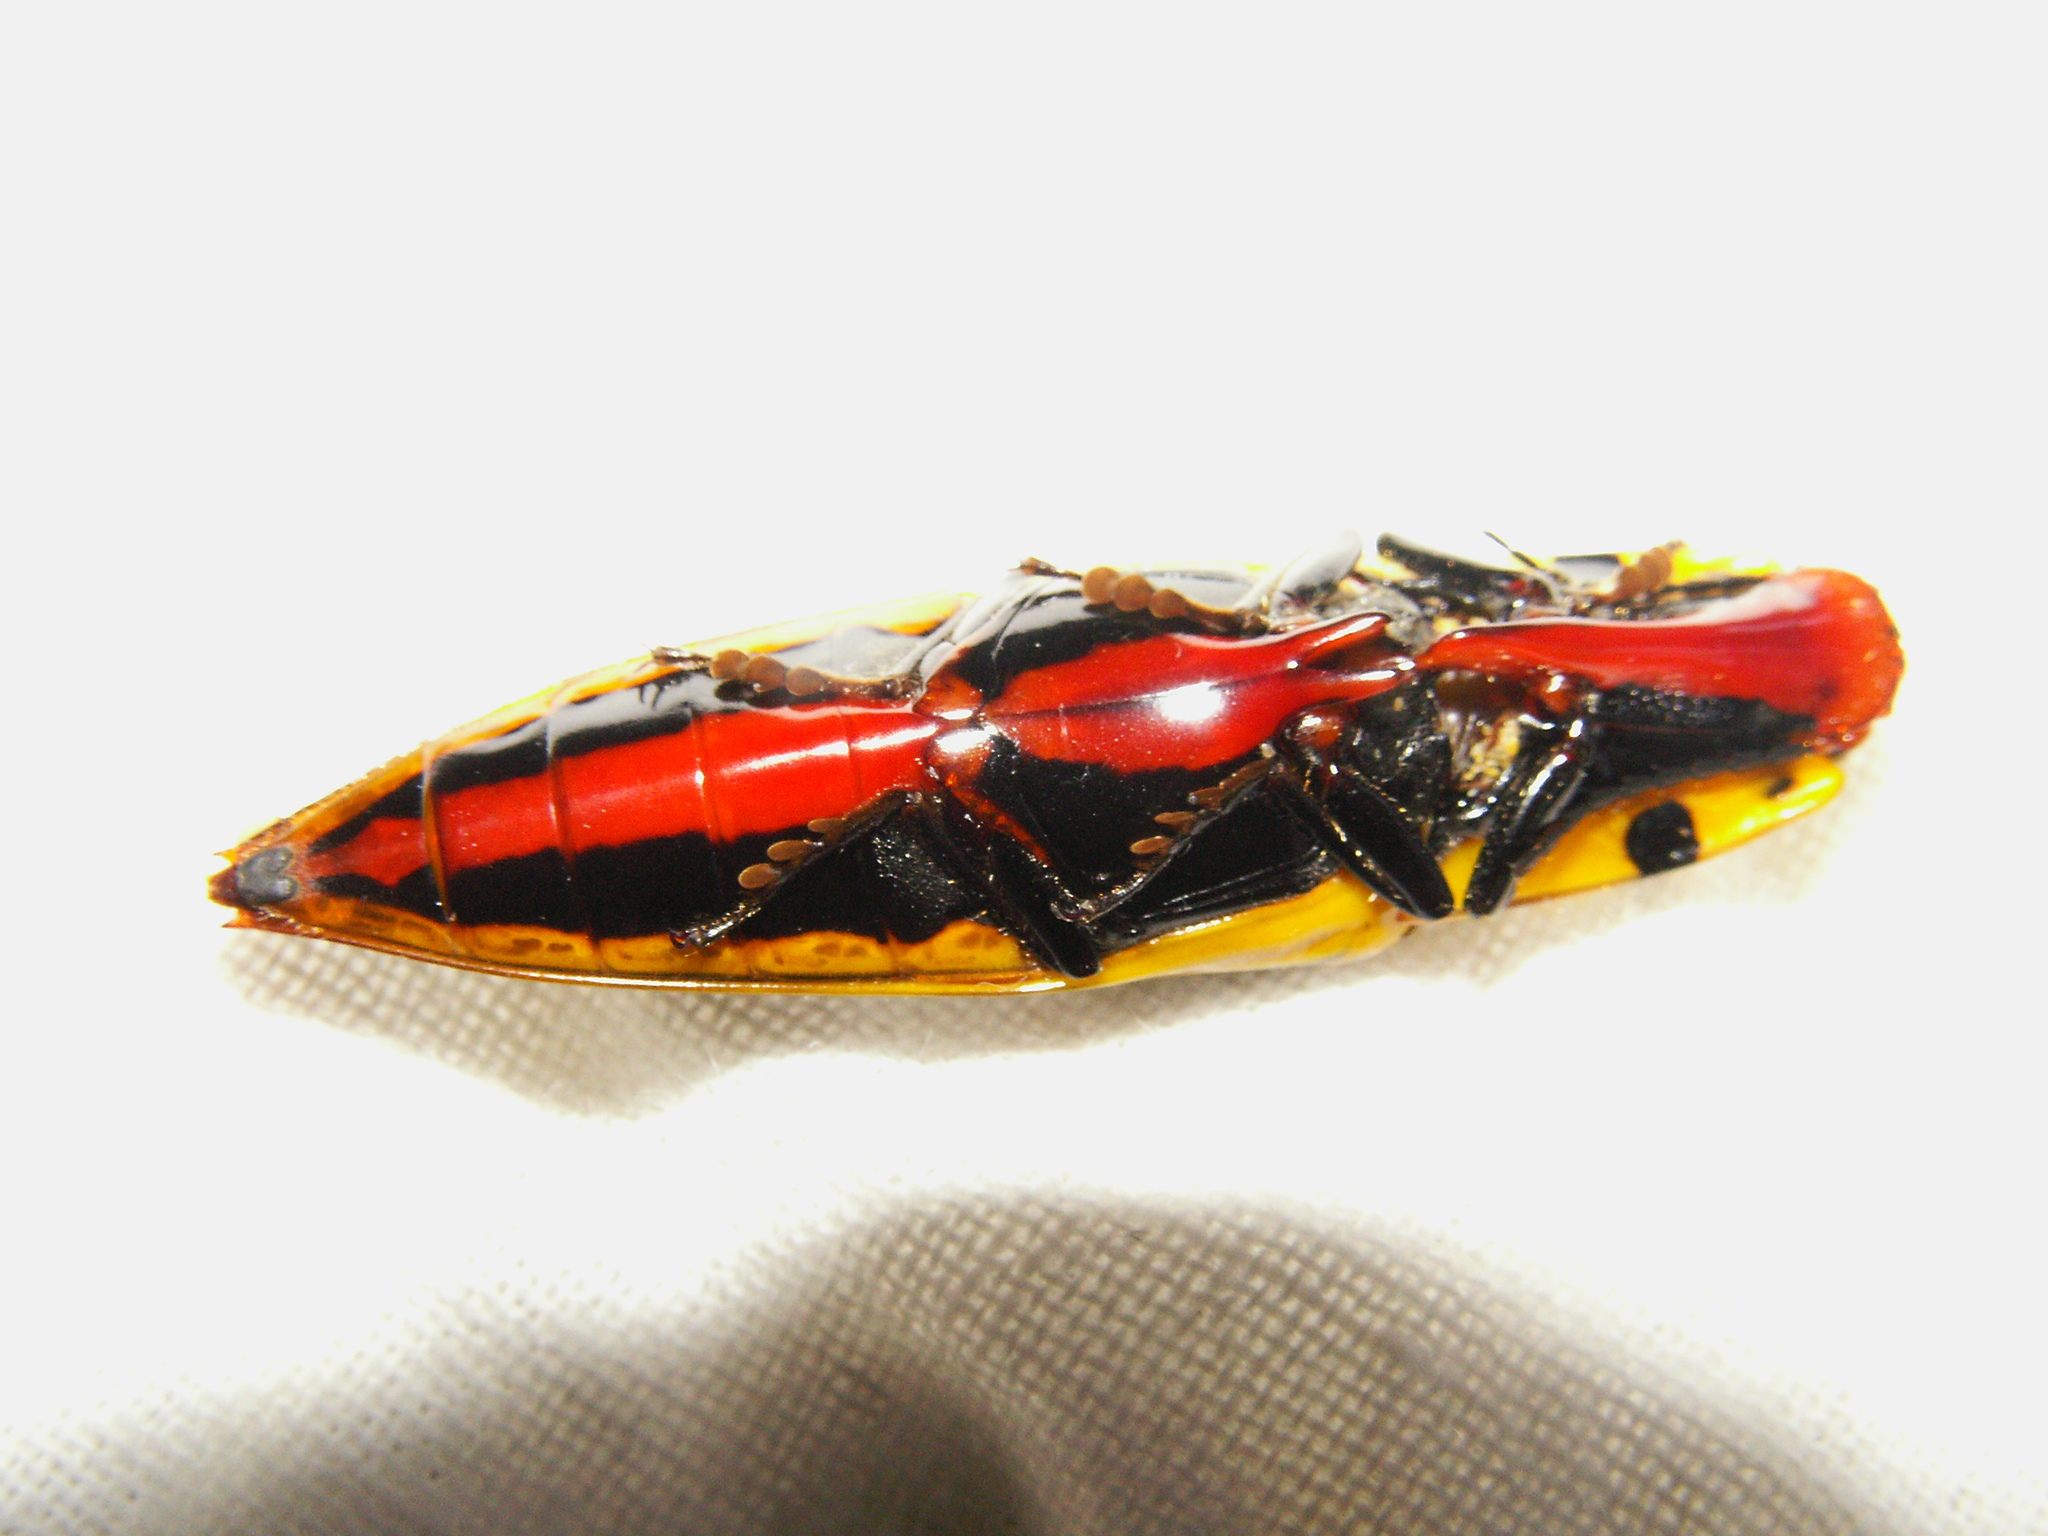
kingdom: Animalia
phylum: Arthropoda
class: Insecta
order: Coleoptera
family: Elateridae
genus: Semiotus
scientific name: Semiotus
